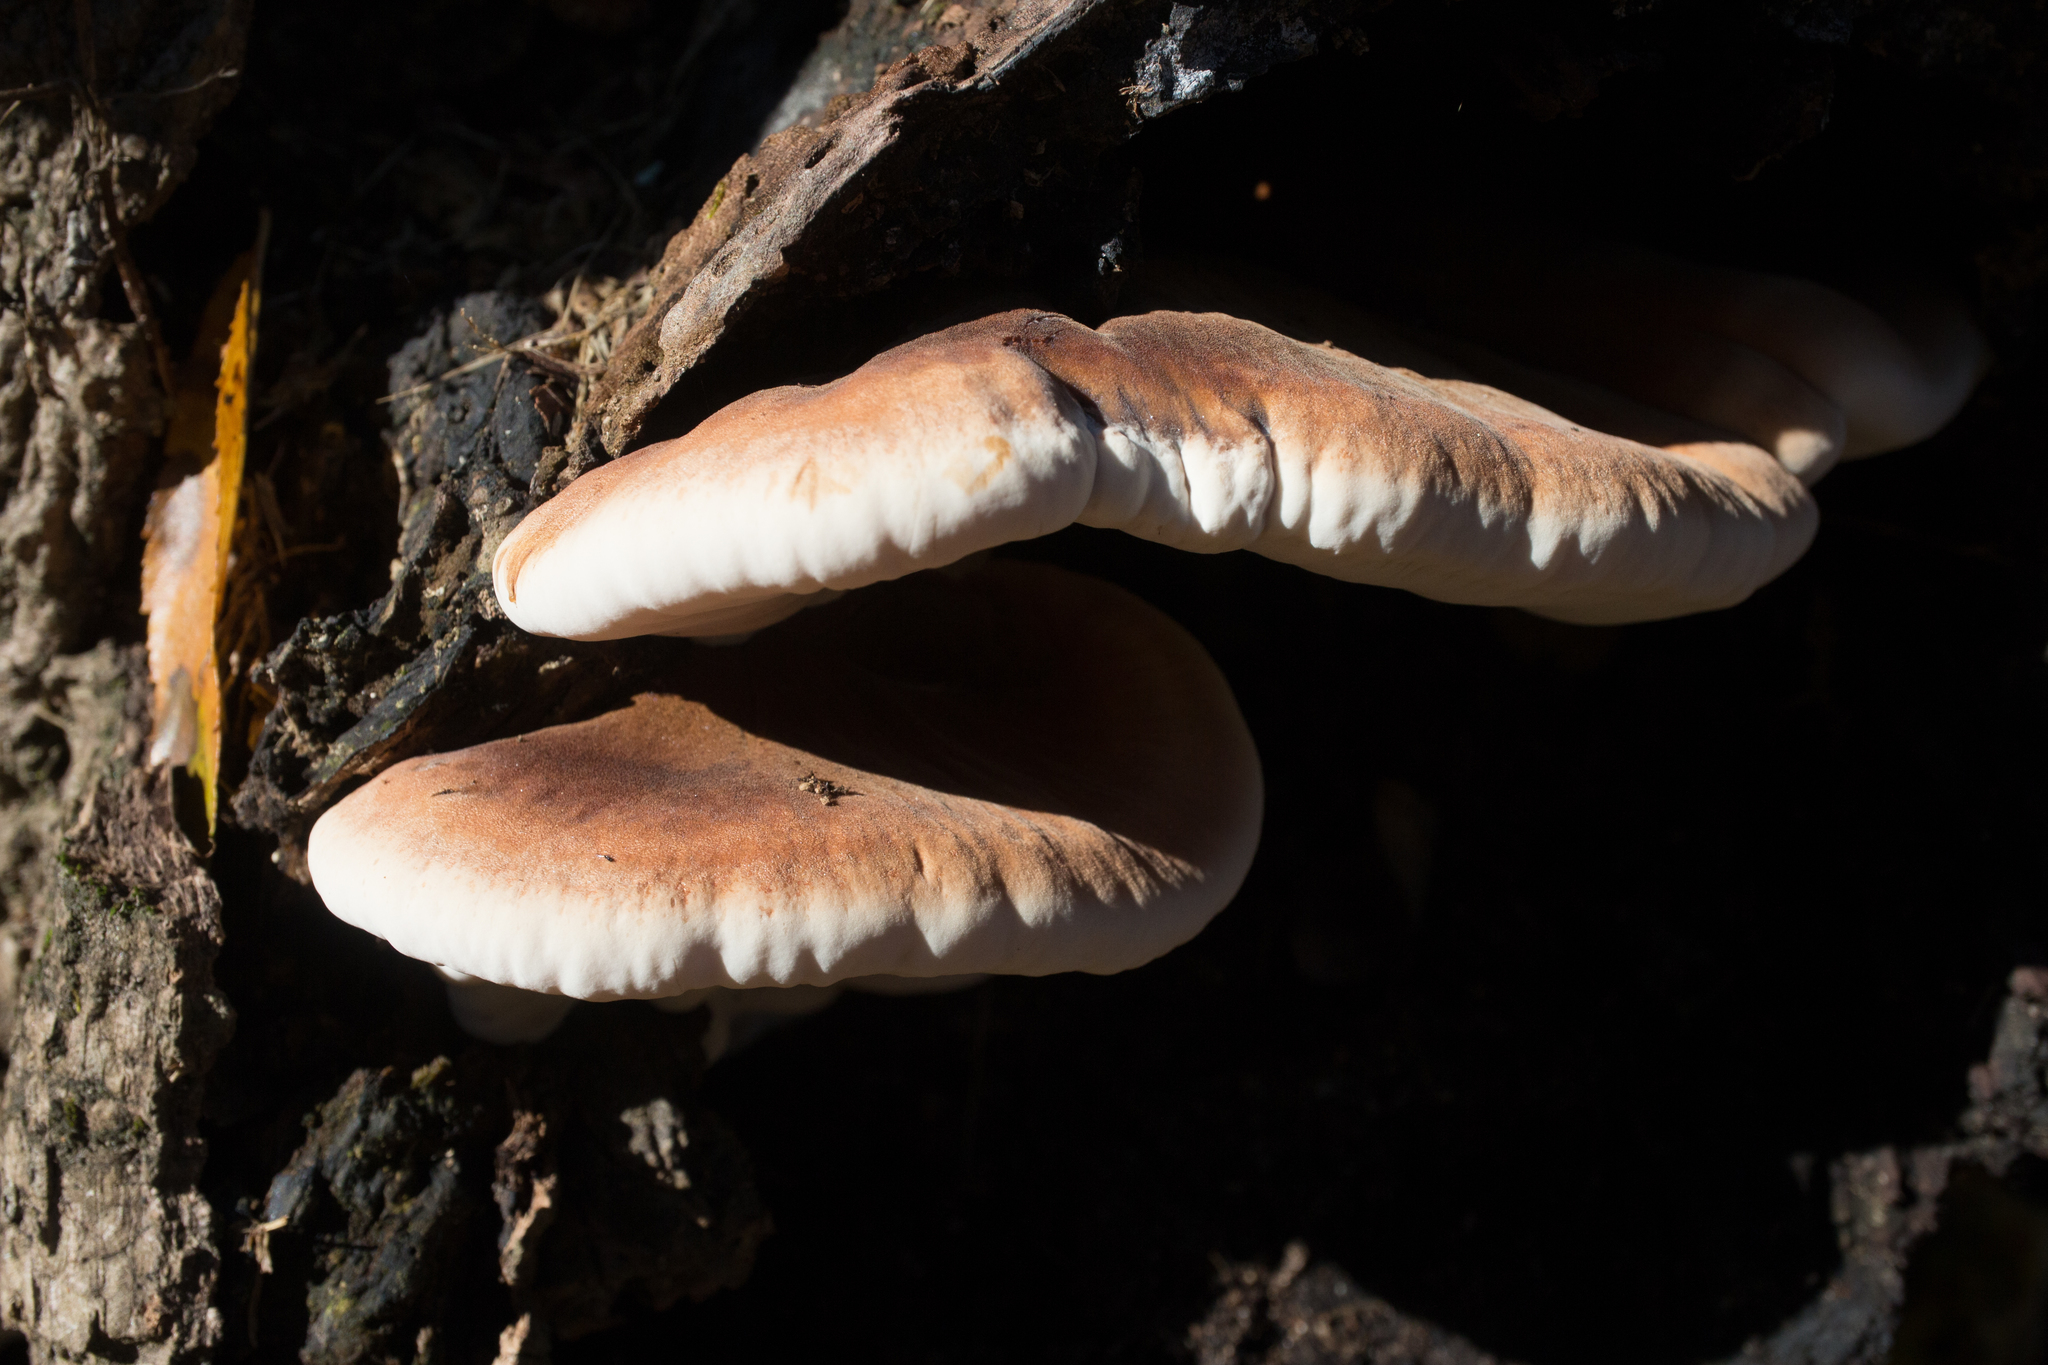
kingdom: Fungi
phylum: Basidiomycota
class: Agaricomycetes
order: Polyporales
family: Ischnodermataceae
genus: Ischnoderma
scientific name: Ischnoderma resinosum
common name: Resinous polypore
